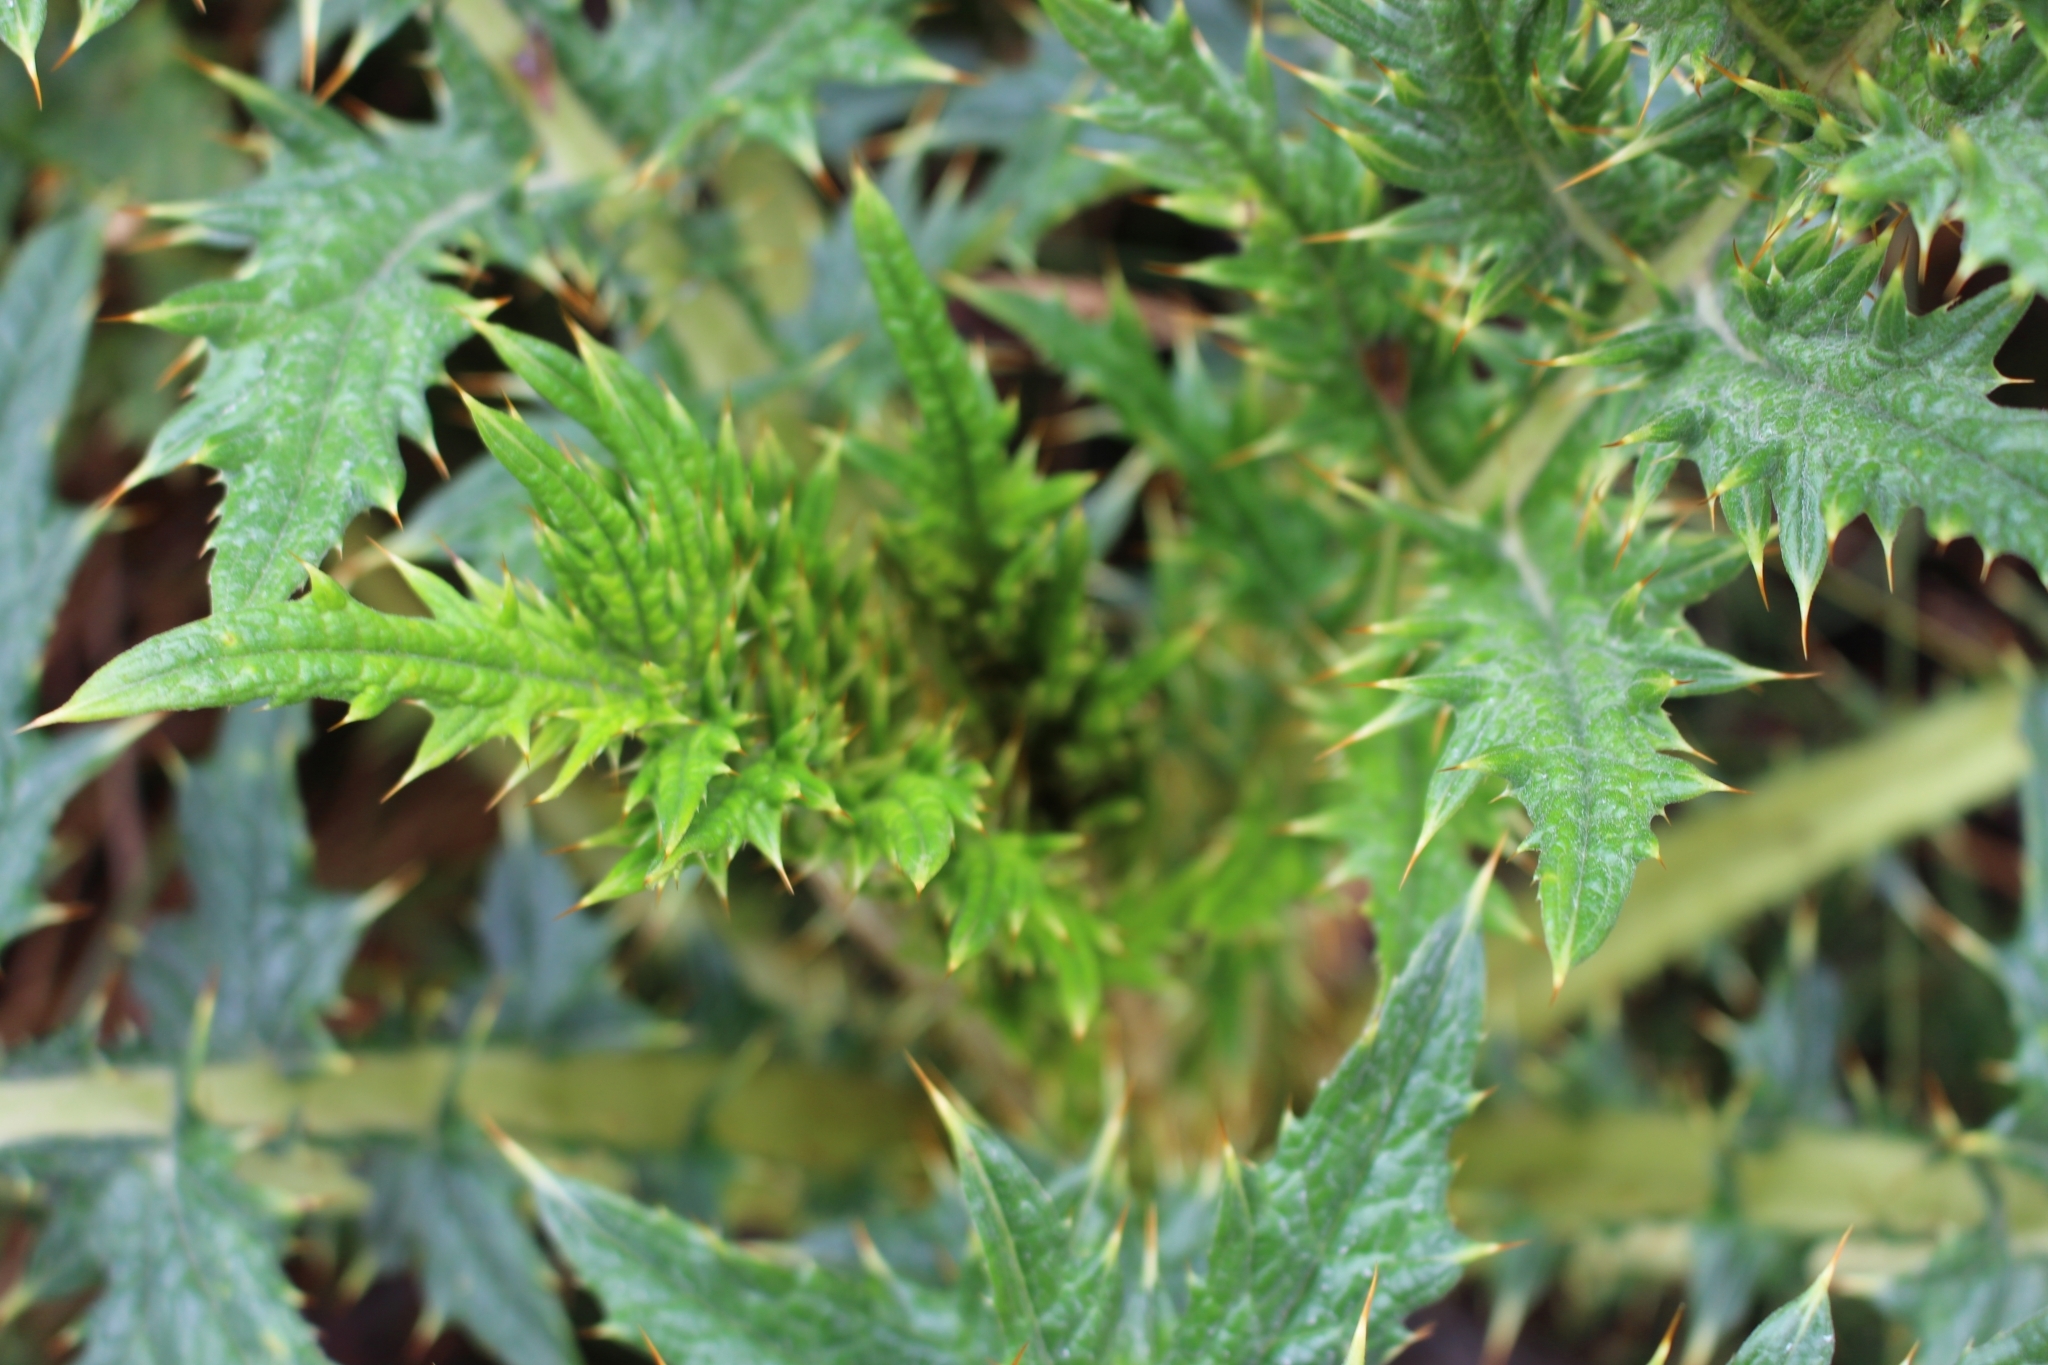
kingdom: Plantae
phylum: Tracheophyta
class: Magnoliopsida
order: Asterales
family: Asteraceae
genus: Cirsium
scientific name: Cirsium subcoriaceum
